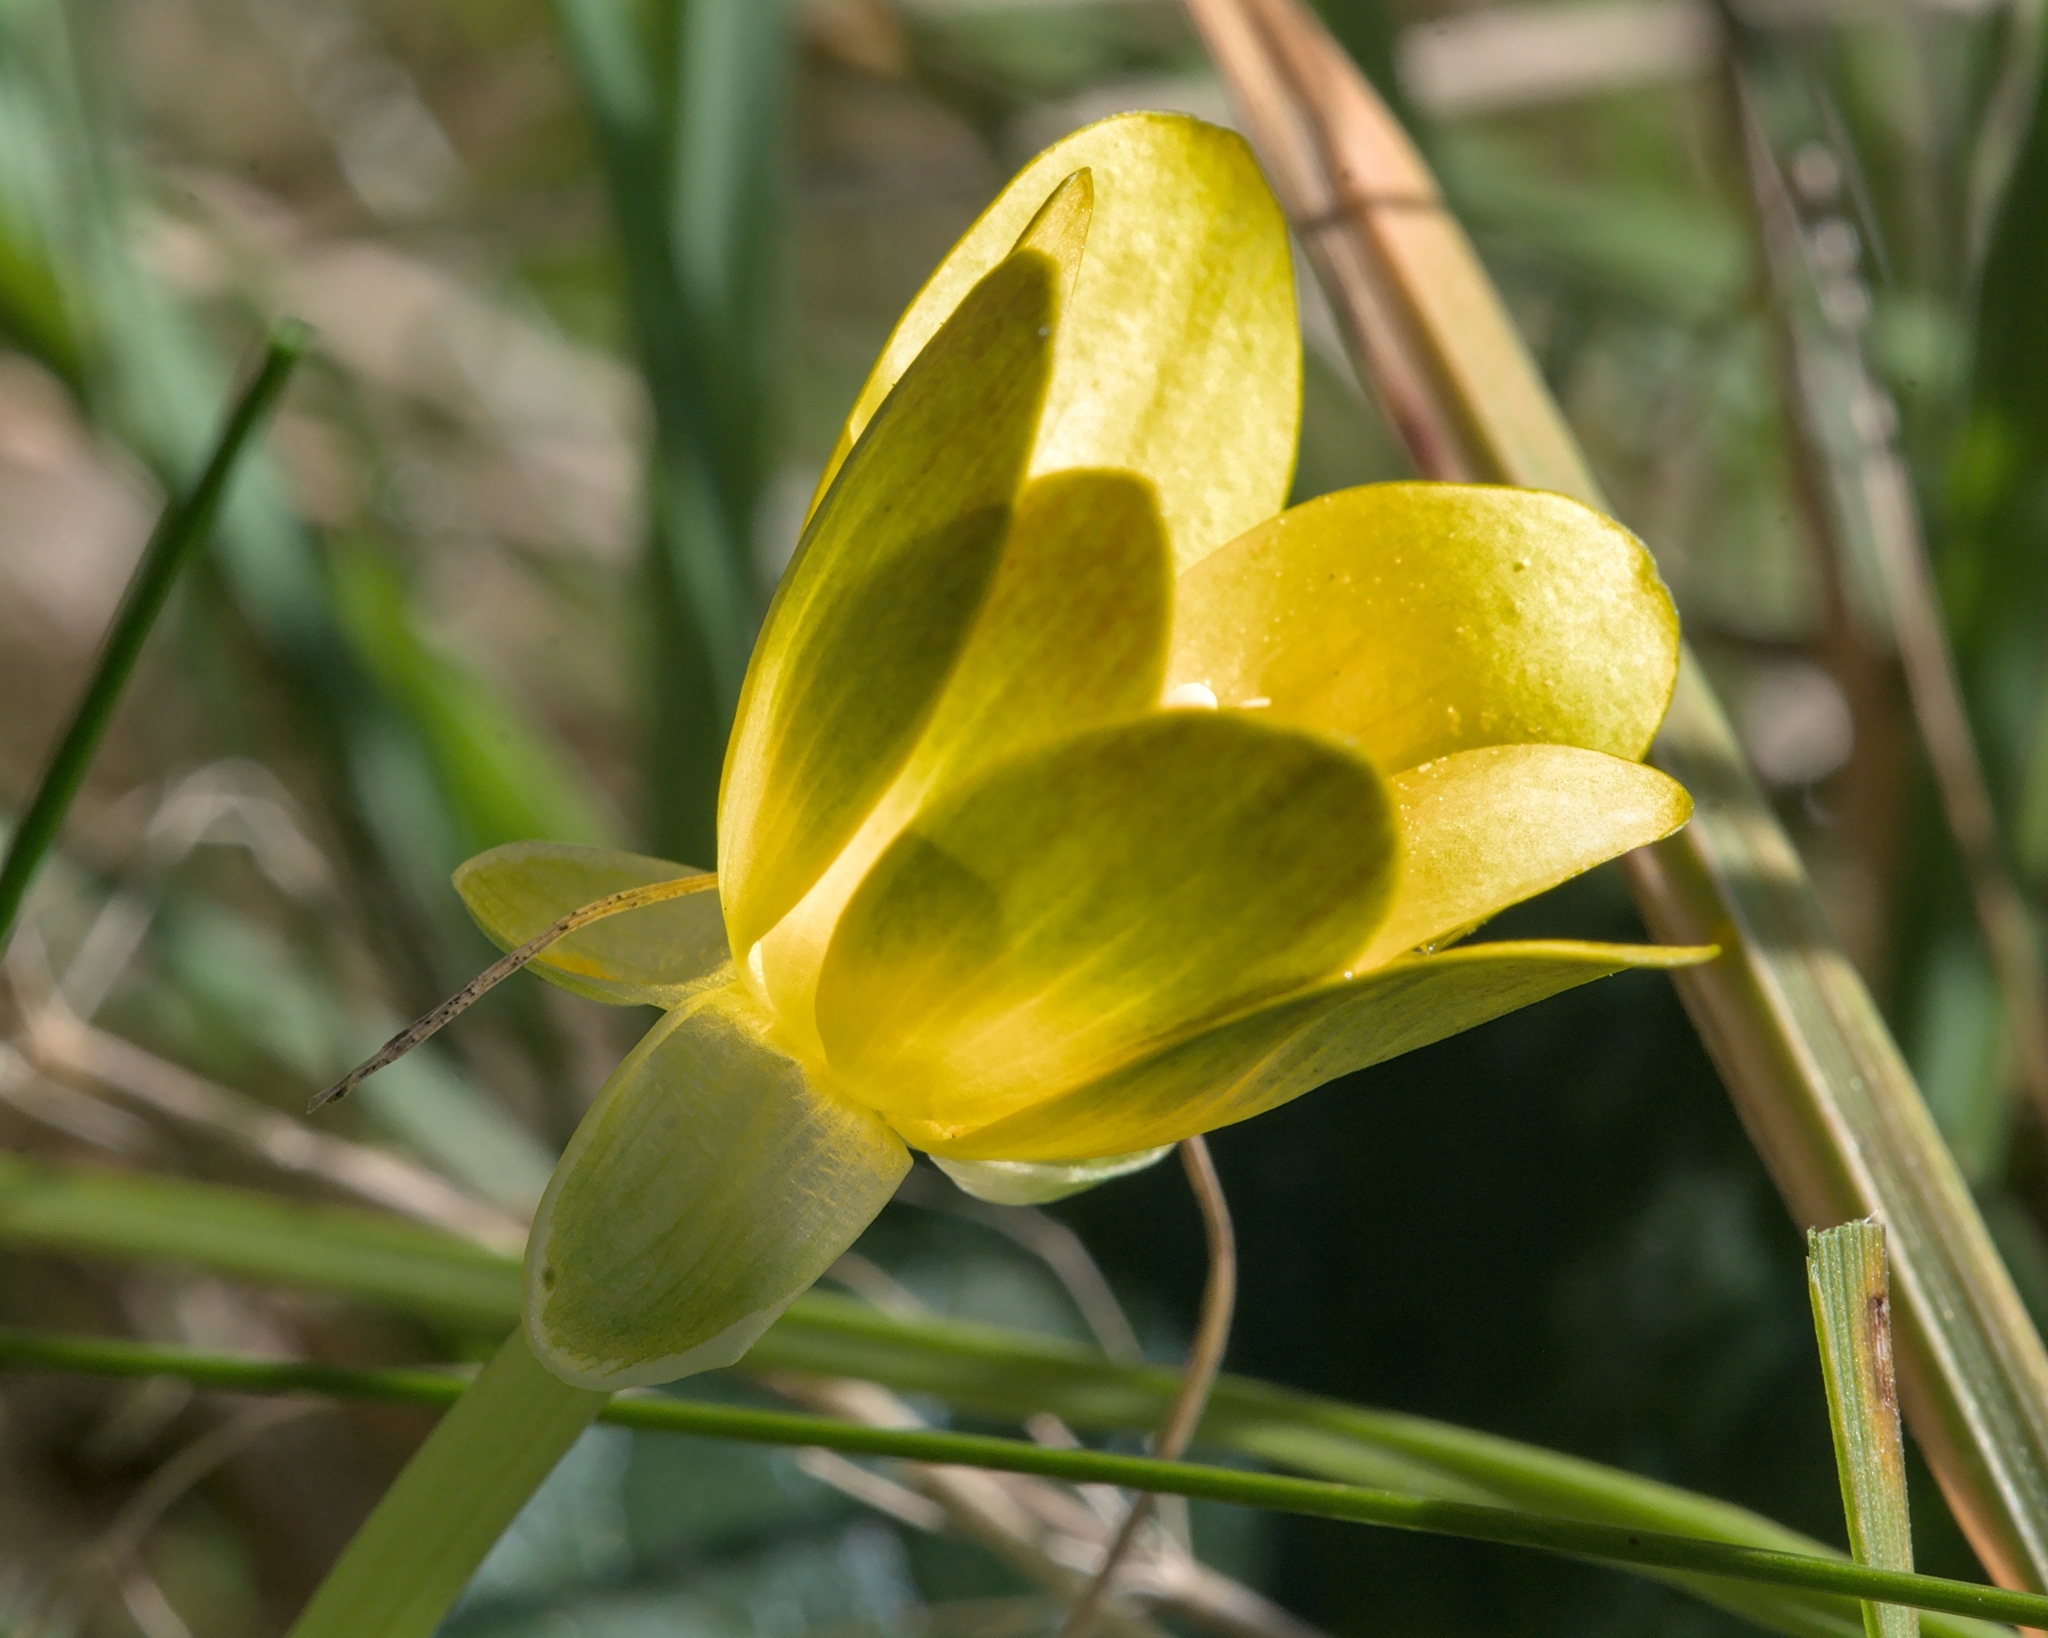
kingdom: Plantae
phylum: Tracheophyta
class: Magnoliopsida
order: Ranunculales
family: Ranunculaceae
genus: Ficaria
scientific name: Ficaria verna
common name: Lesser celandine
